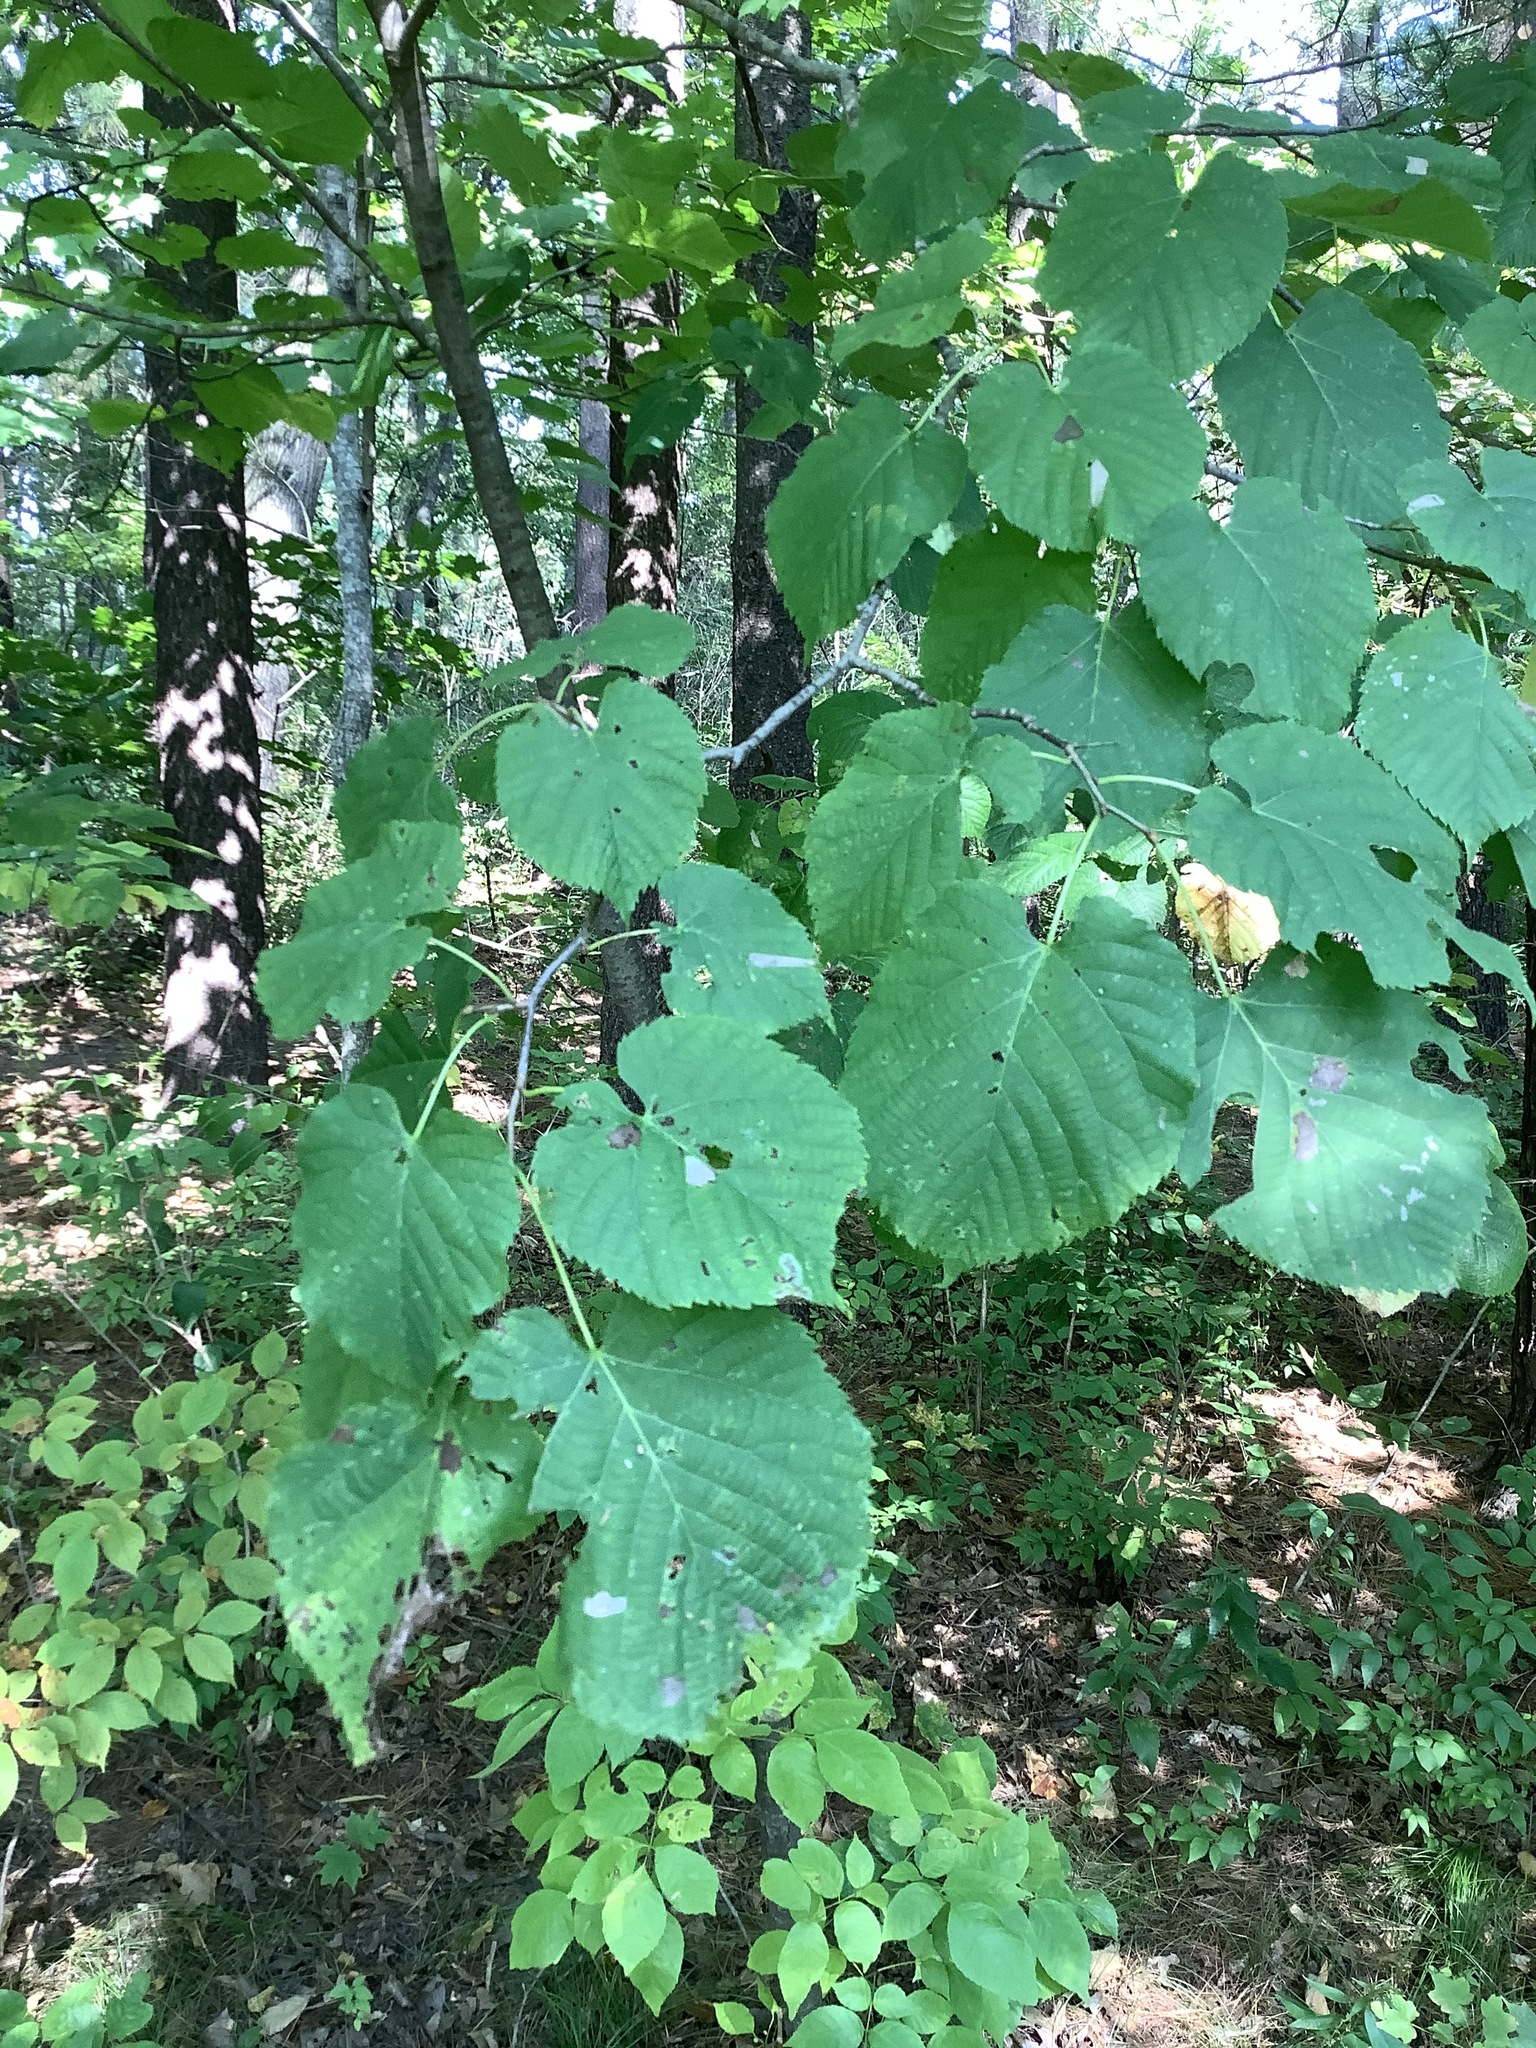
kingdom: Plantae
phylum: Tracheophyta
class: Magnoliopsida
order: Malvales
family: Malvaceae
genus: Tilia
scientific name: Tilia americana
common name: Basswood
